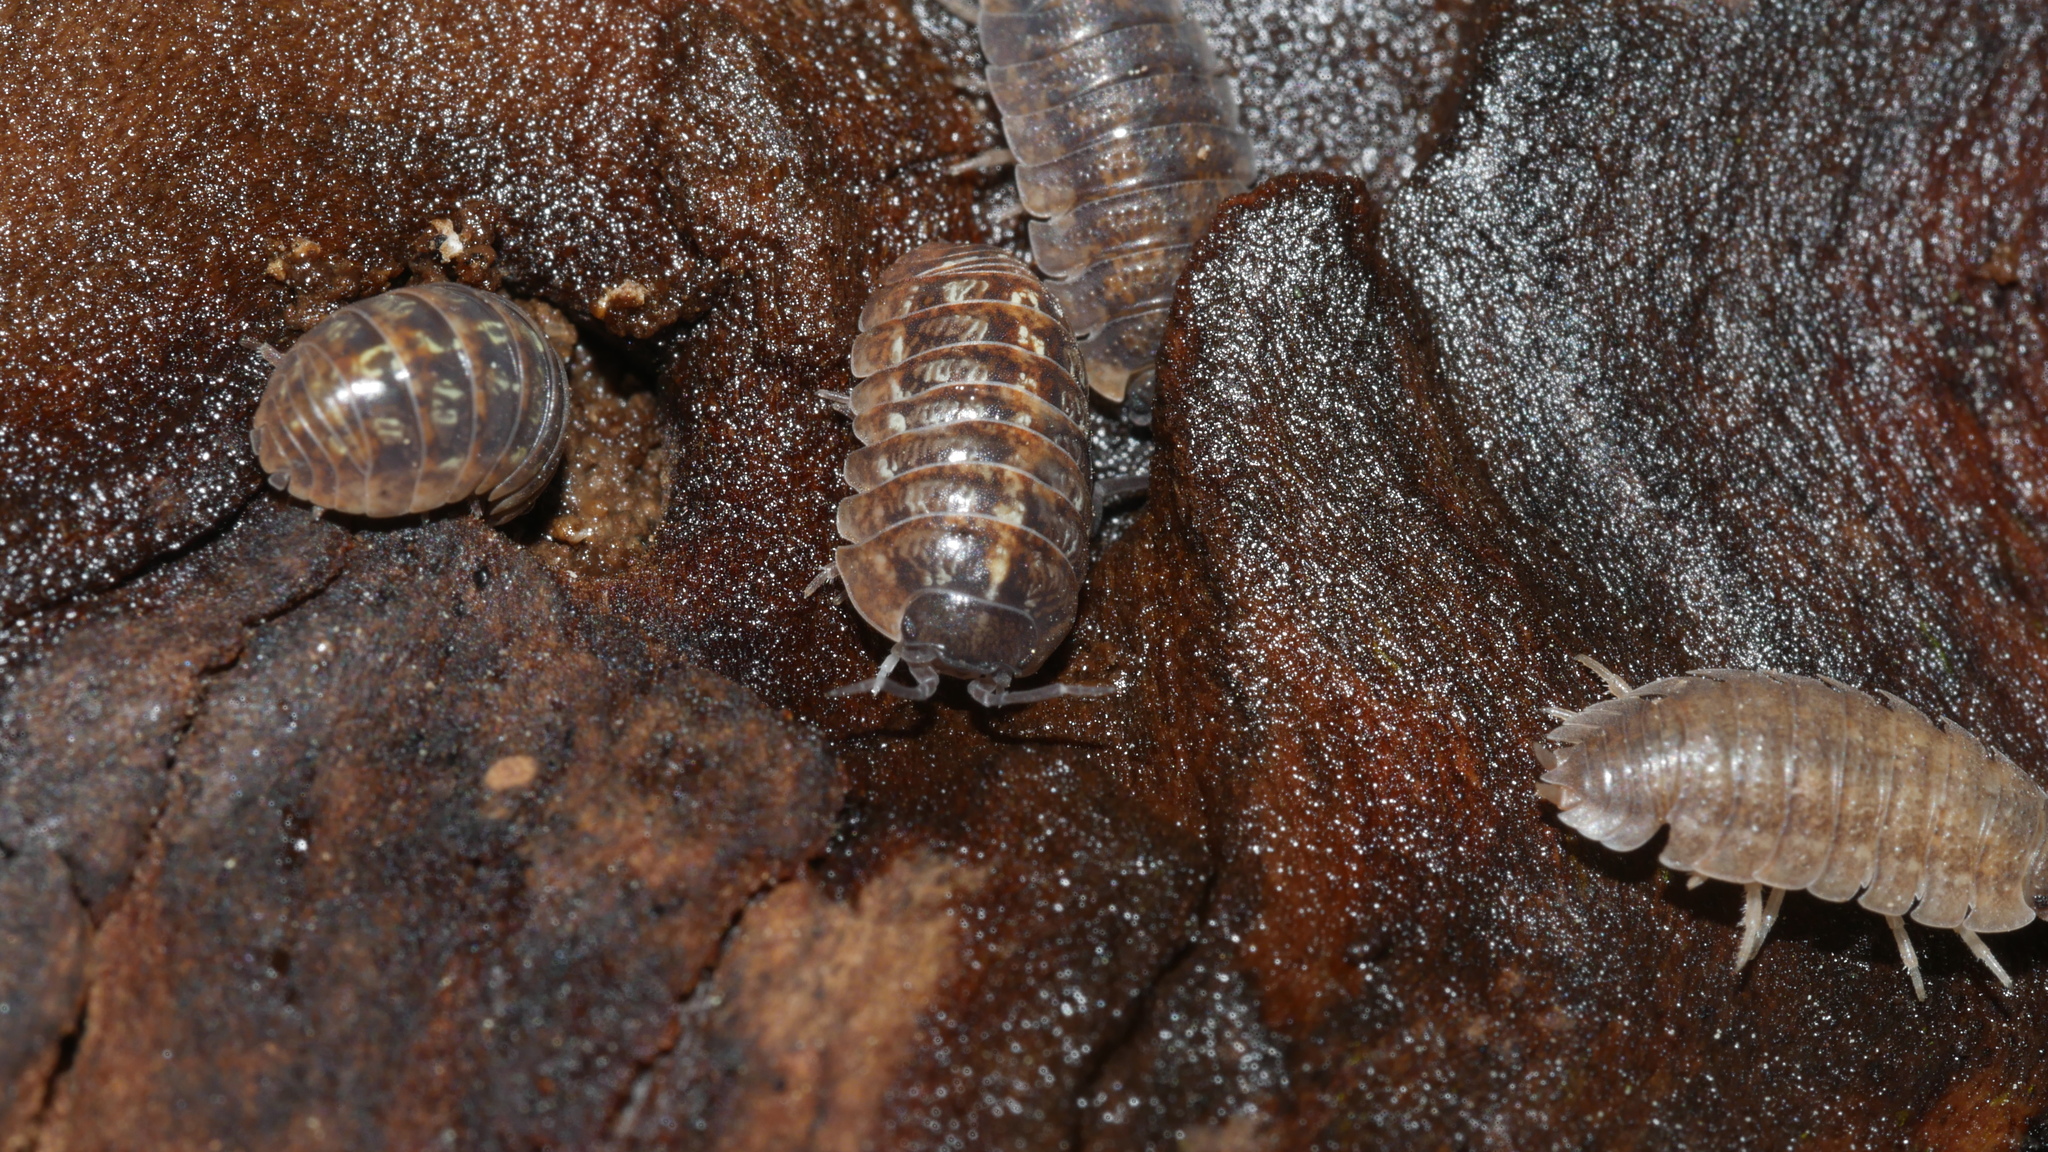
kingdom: Animalia
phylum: Arthropoda
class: Malacostraca
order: Isopoda
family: Armadillidiidae
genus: Armadillidium
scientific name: Armadillidium vulgare
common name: Common pill woodlouse
